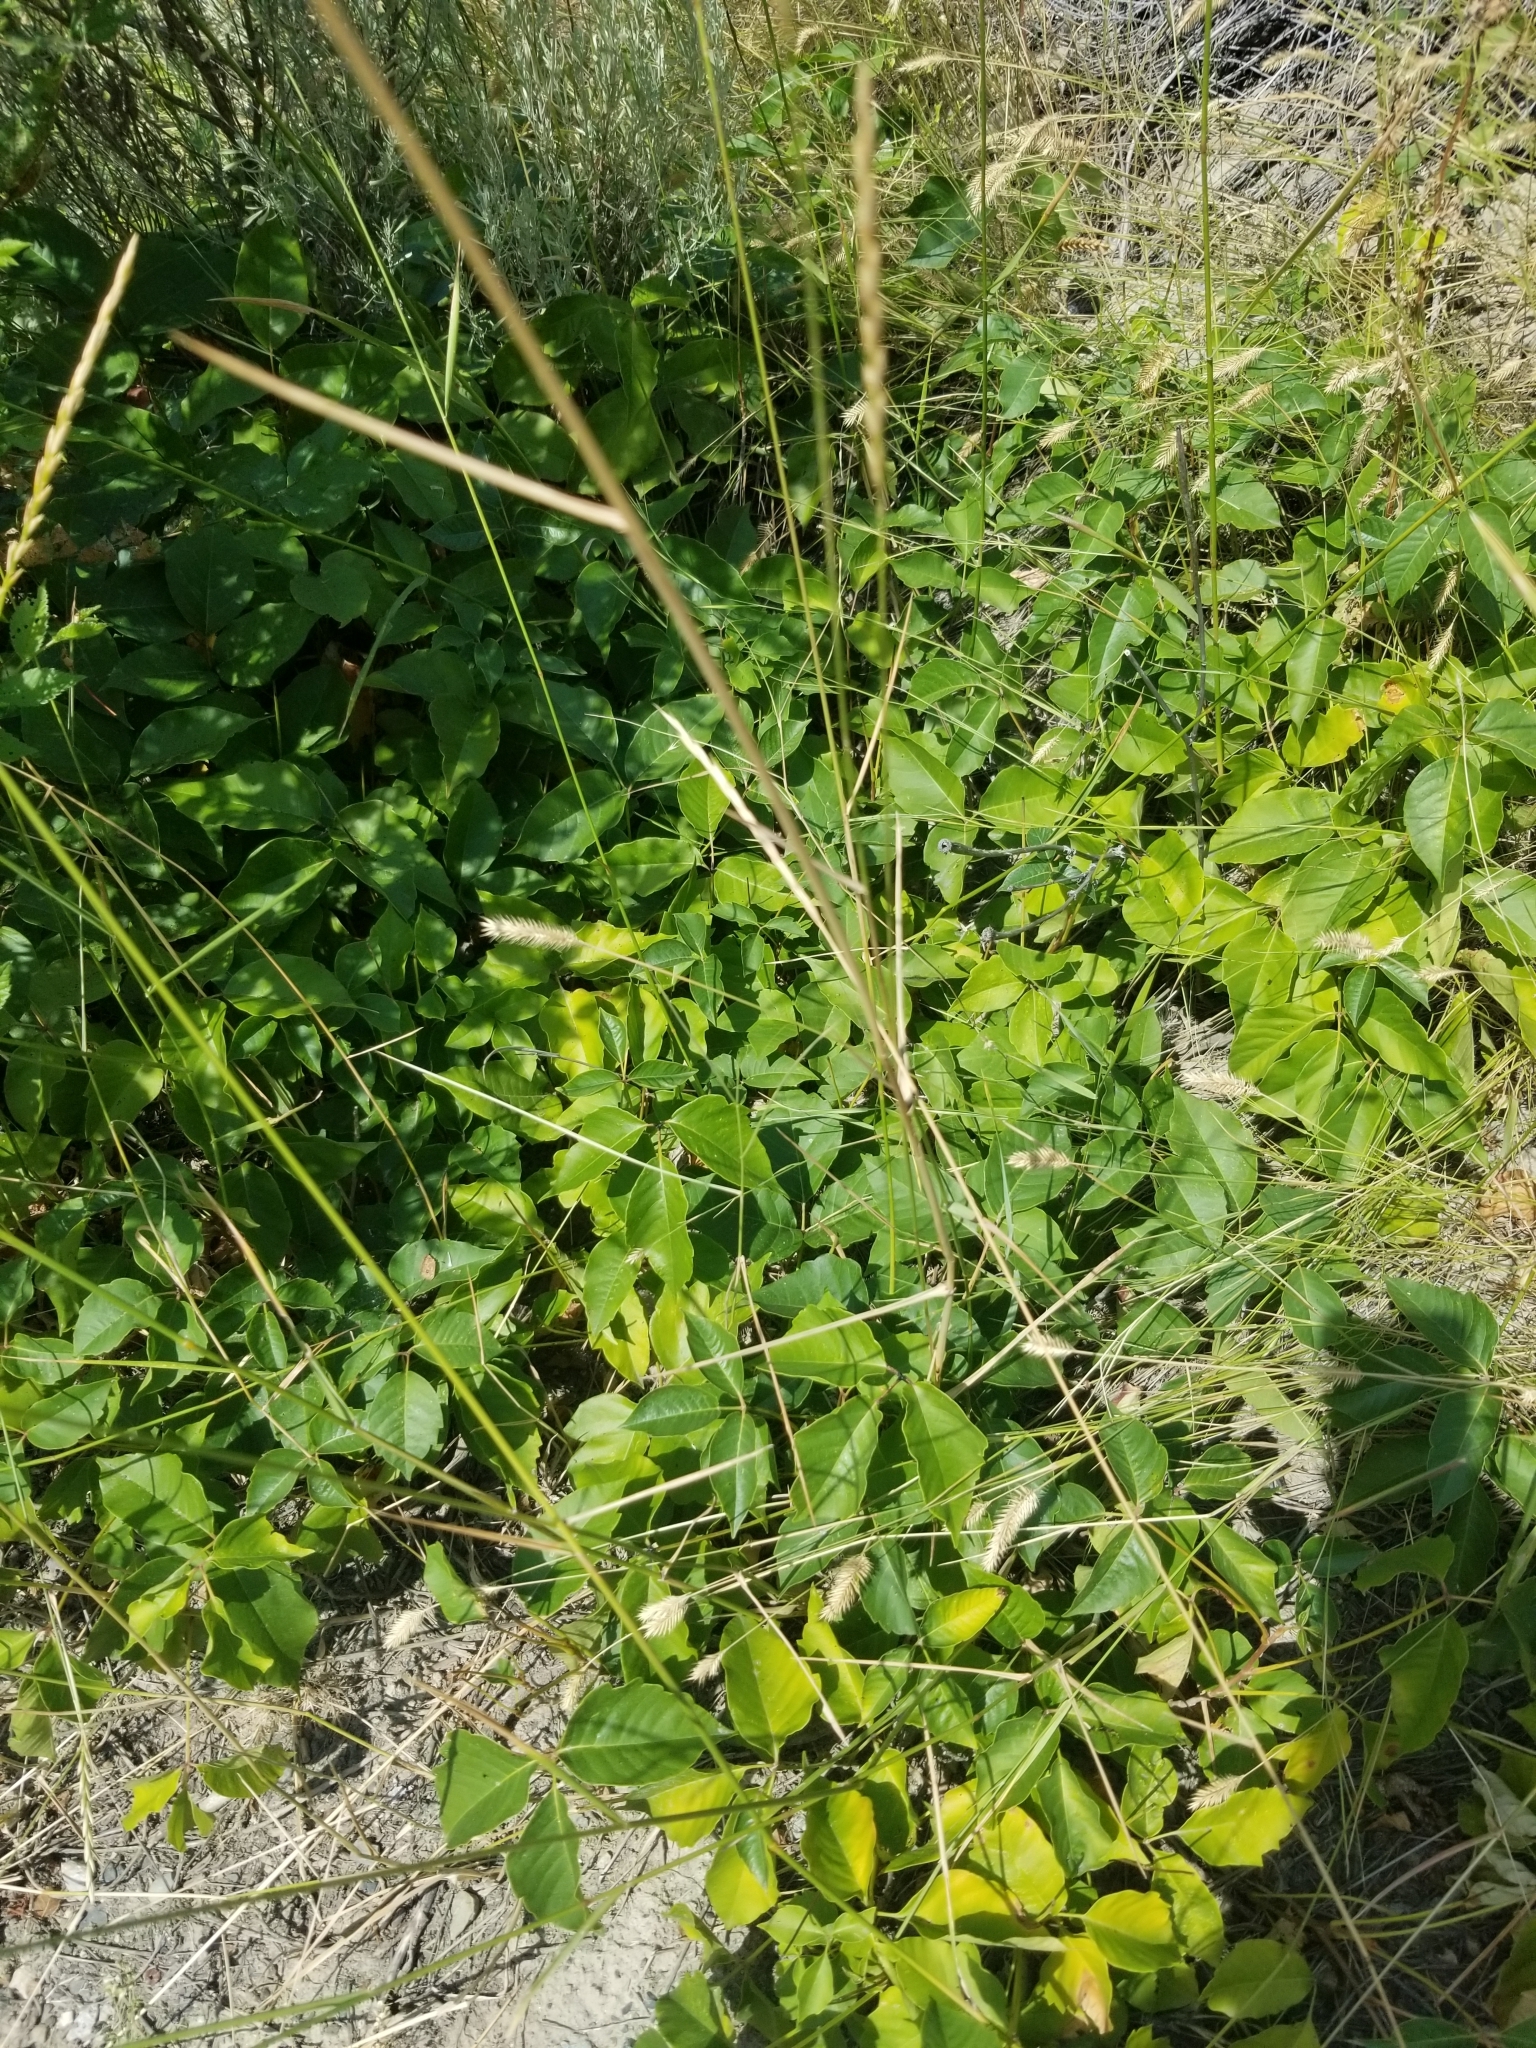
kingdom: Plantae
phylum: Tracheophyta
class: Magnoliopsida
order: Sapindales
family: Anacardiaceae
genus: Toxicodendron
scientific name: Toxicodendron rydbergii
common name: Rydberg's poison-ivy
